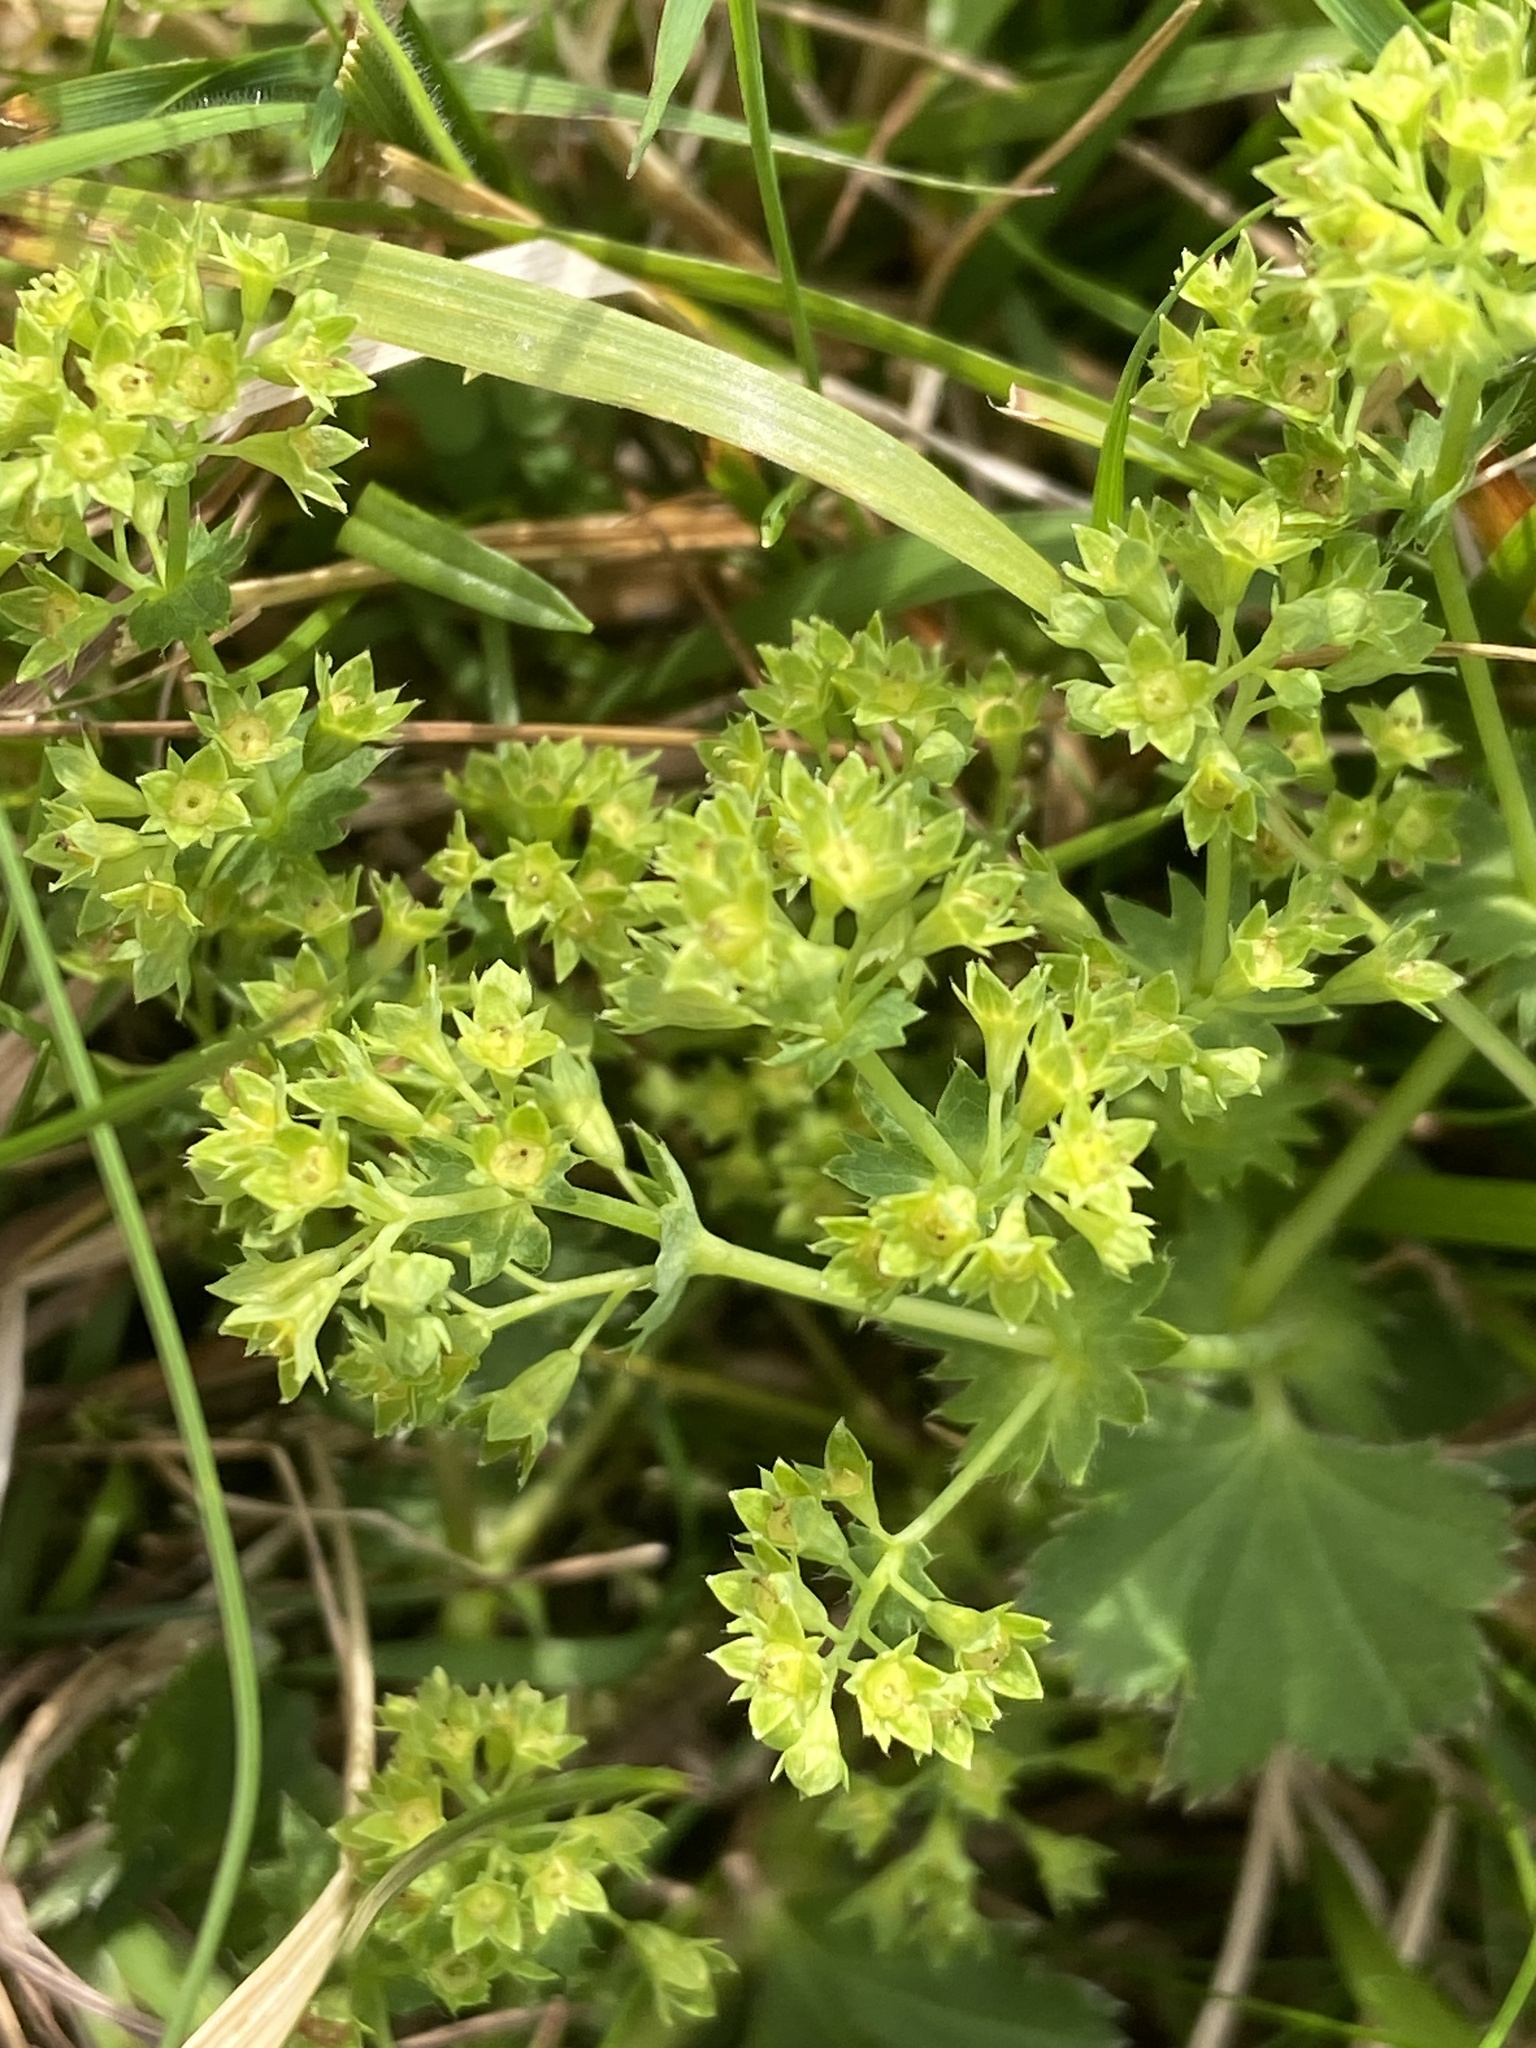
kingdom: Plantae
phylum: Tracheophyta
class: Magnoliopsida
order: Rosales
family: Rosaceae
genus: Alchemilla
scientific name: Alchemilla vulgaris
